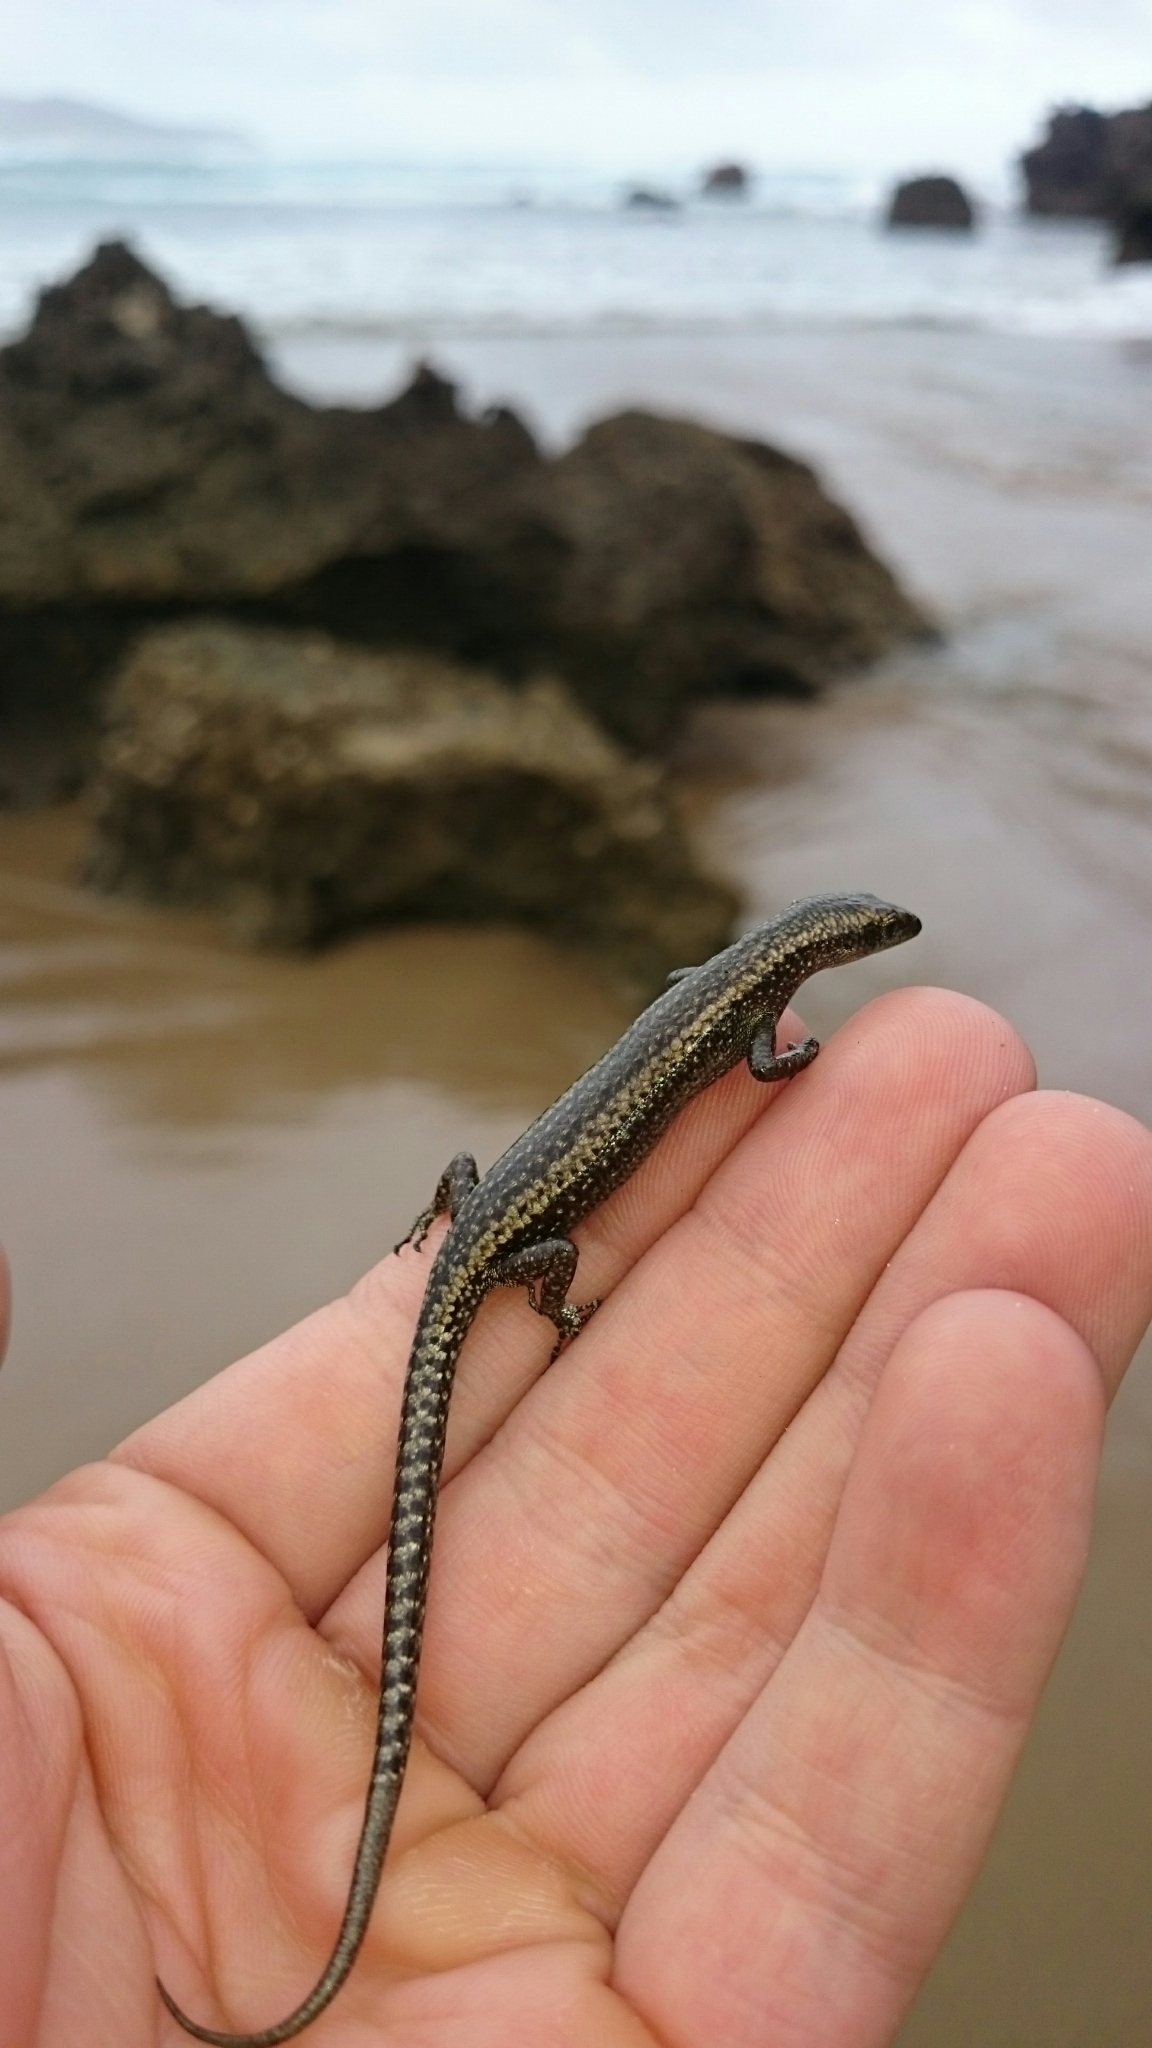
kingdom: Animalia
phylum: Chordata
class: Squamata
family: Scincidae
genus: Cryptoblepharus
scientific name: Cryptoblepharus africanus
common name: African coral rag skink
